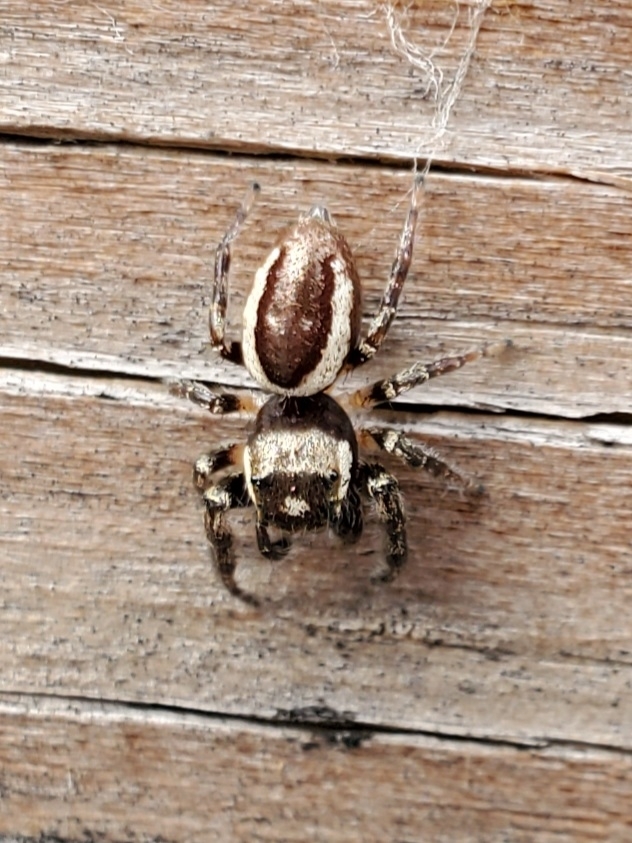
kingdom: Animalia
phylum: Arthropoda
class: Arachnida
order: Araneae
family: Salticidae
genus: Eris
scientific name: Eris militaris
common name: Bronze jumper
